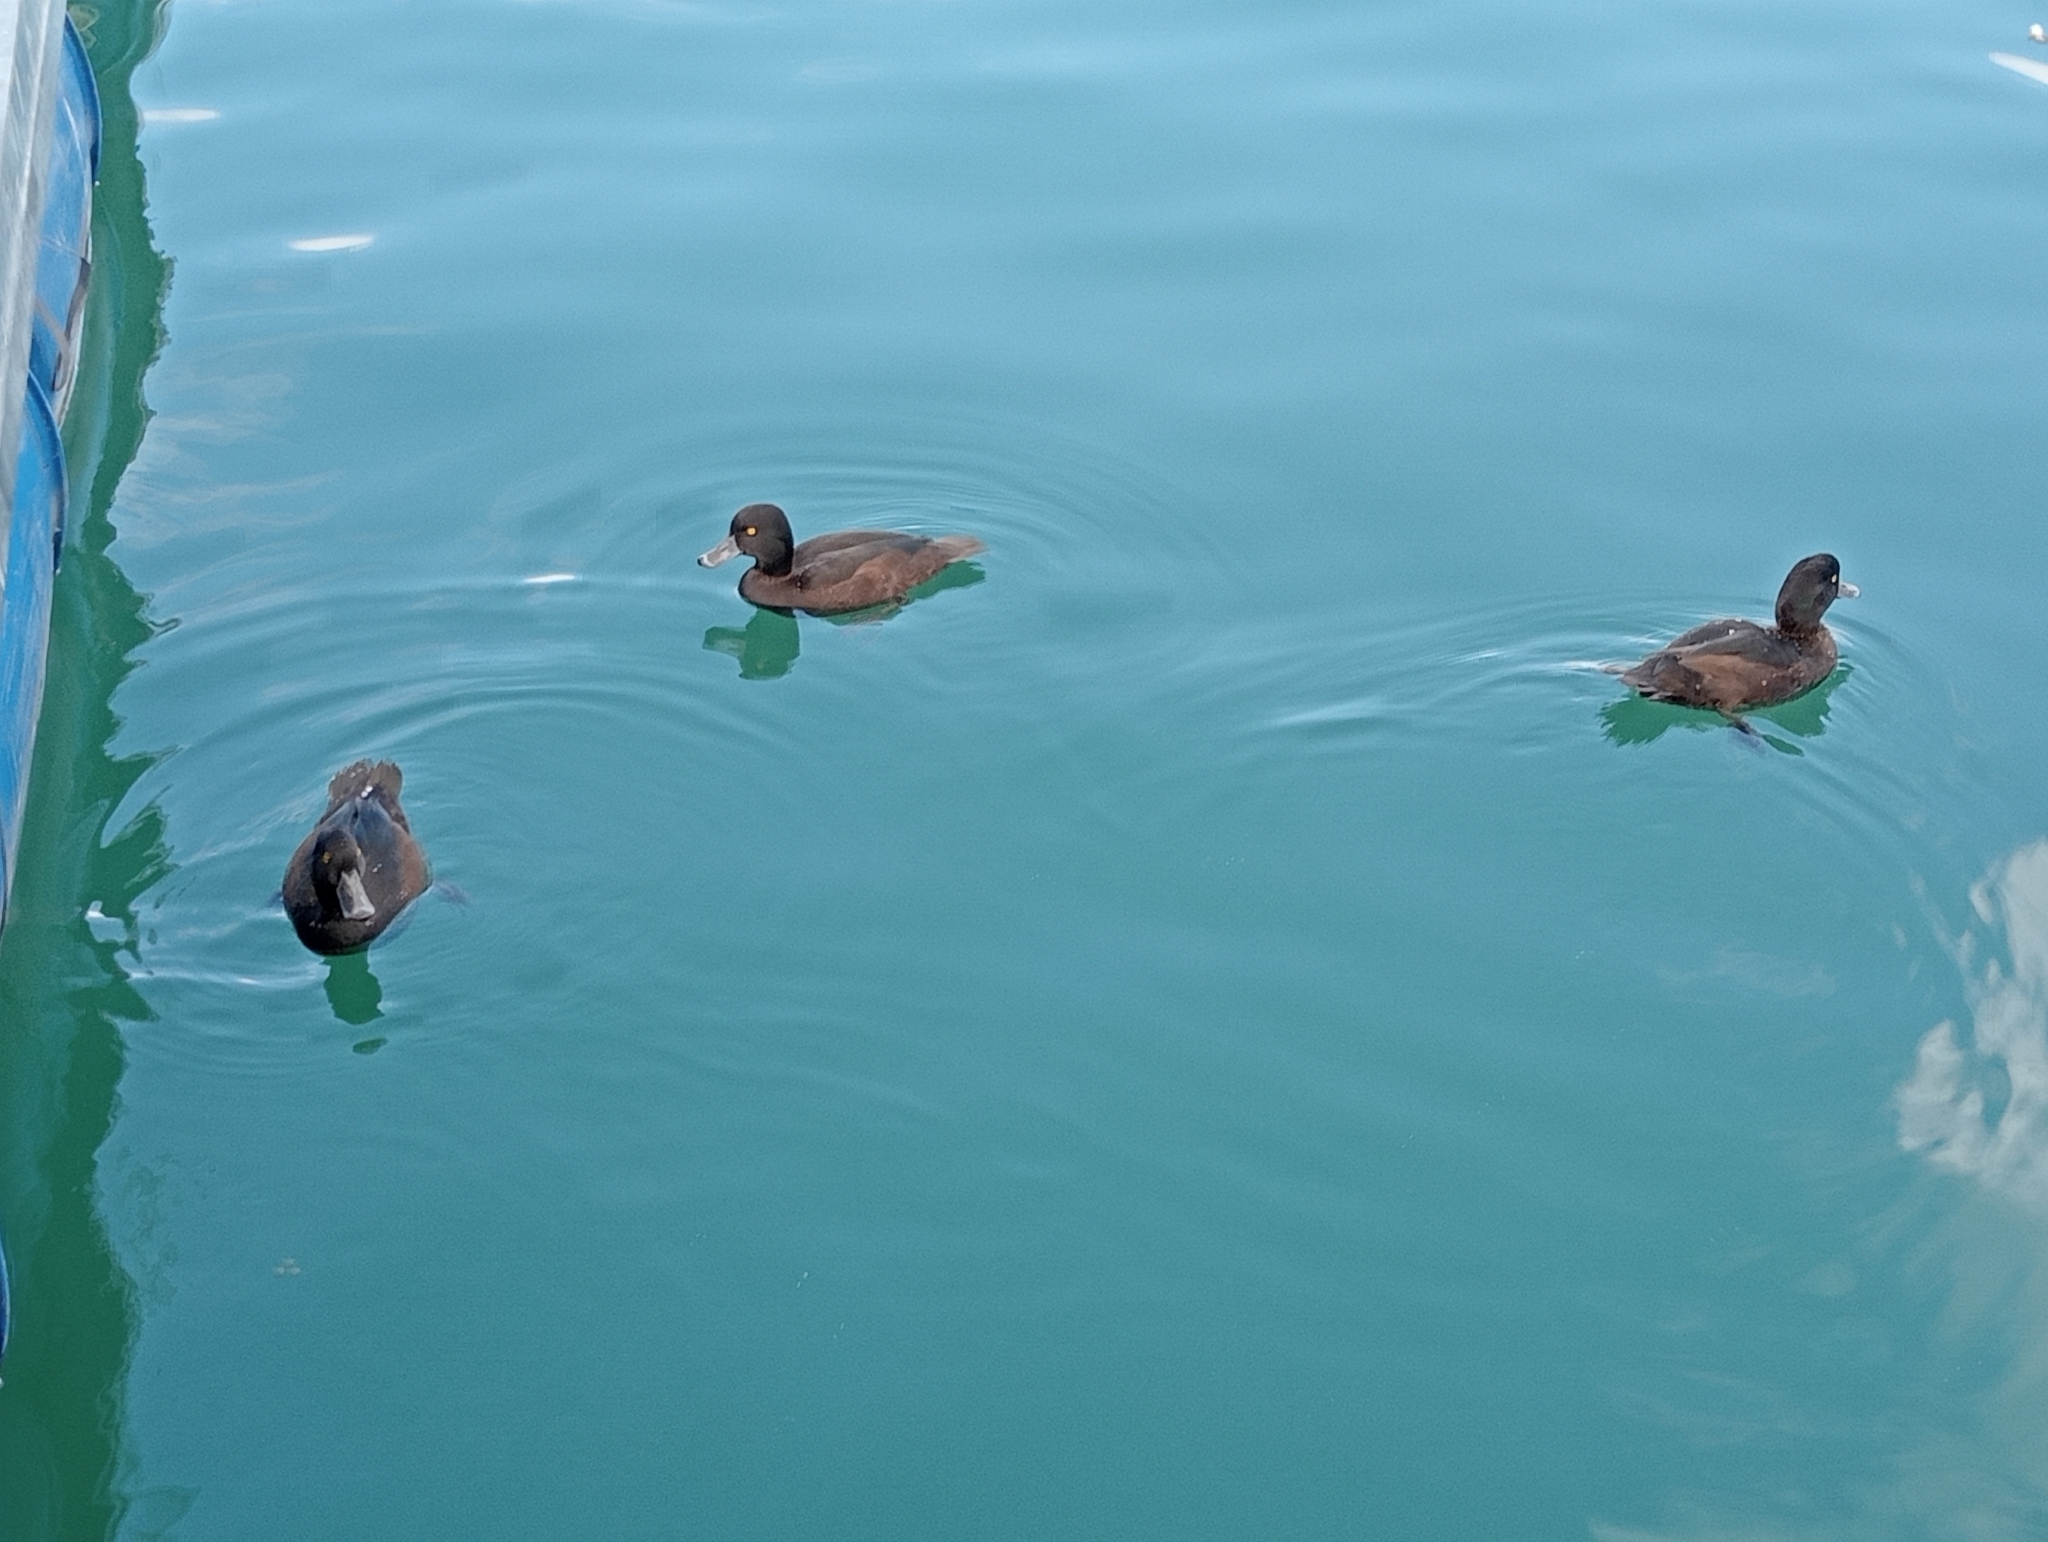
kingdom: Animalia
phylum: Chordata
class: Aves
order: Anseriformes
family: Anatidae
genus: Aythya
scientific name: Aythya novaeseelandiae
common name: New zealand scaup
